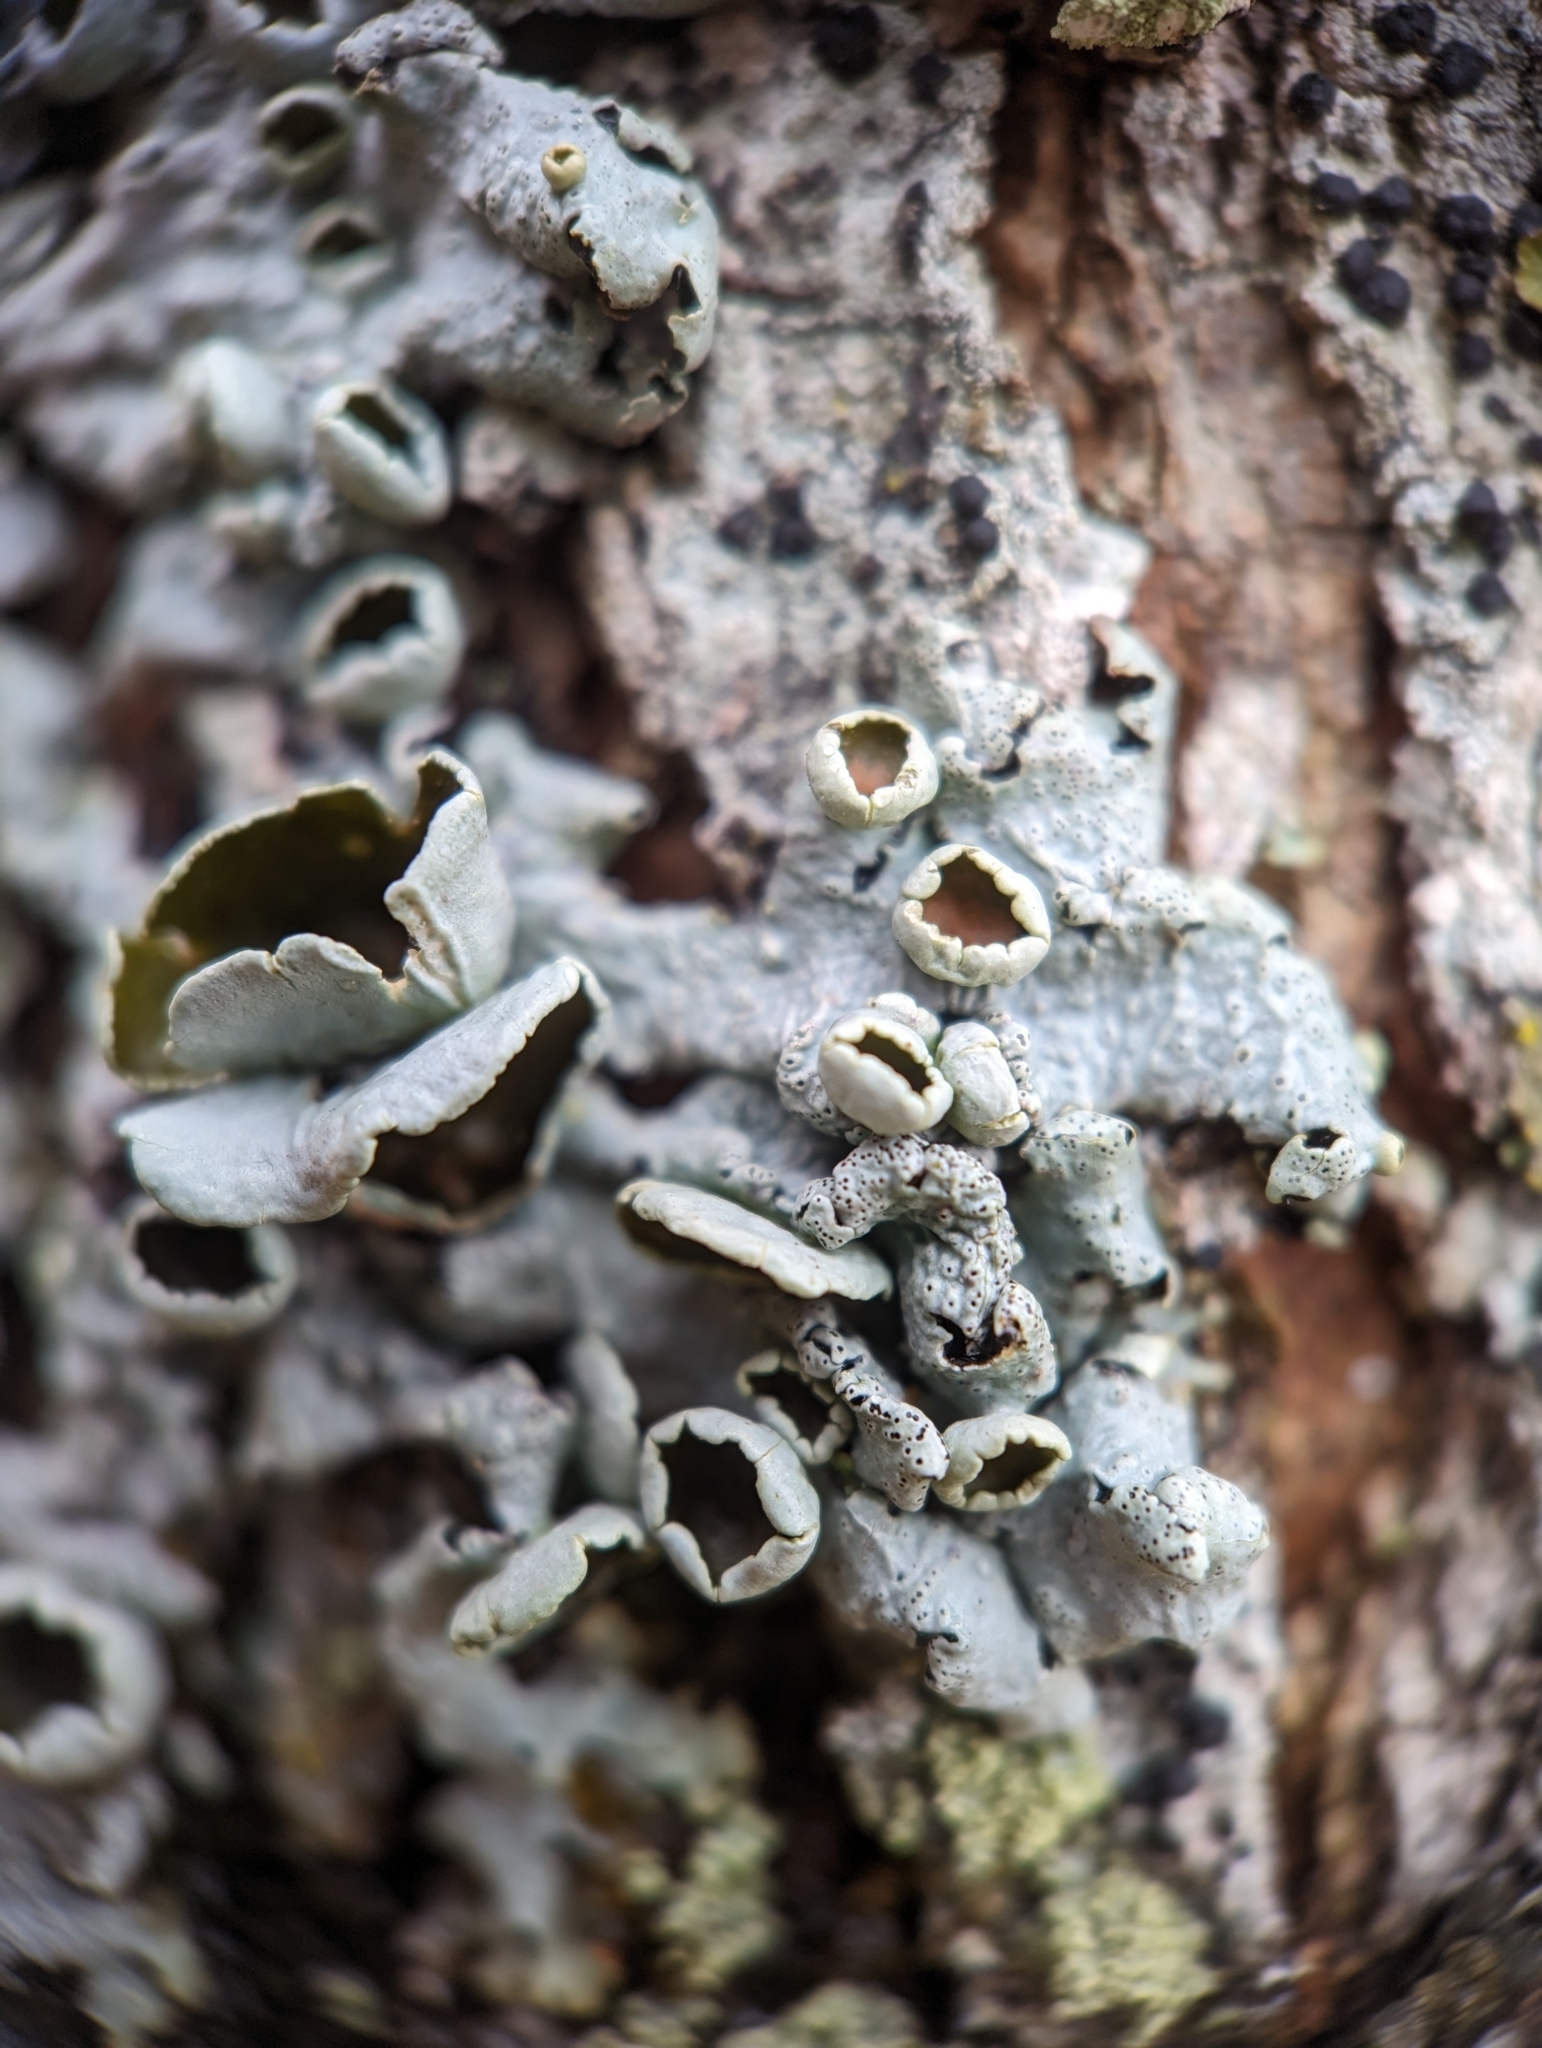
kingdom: Fungi
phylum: Ascomycota
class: Lecanoromycetes
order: Lecanorales
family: Parmeliaceae
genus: Hypotrachyna
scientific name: Hypotrachyna livida
